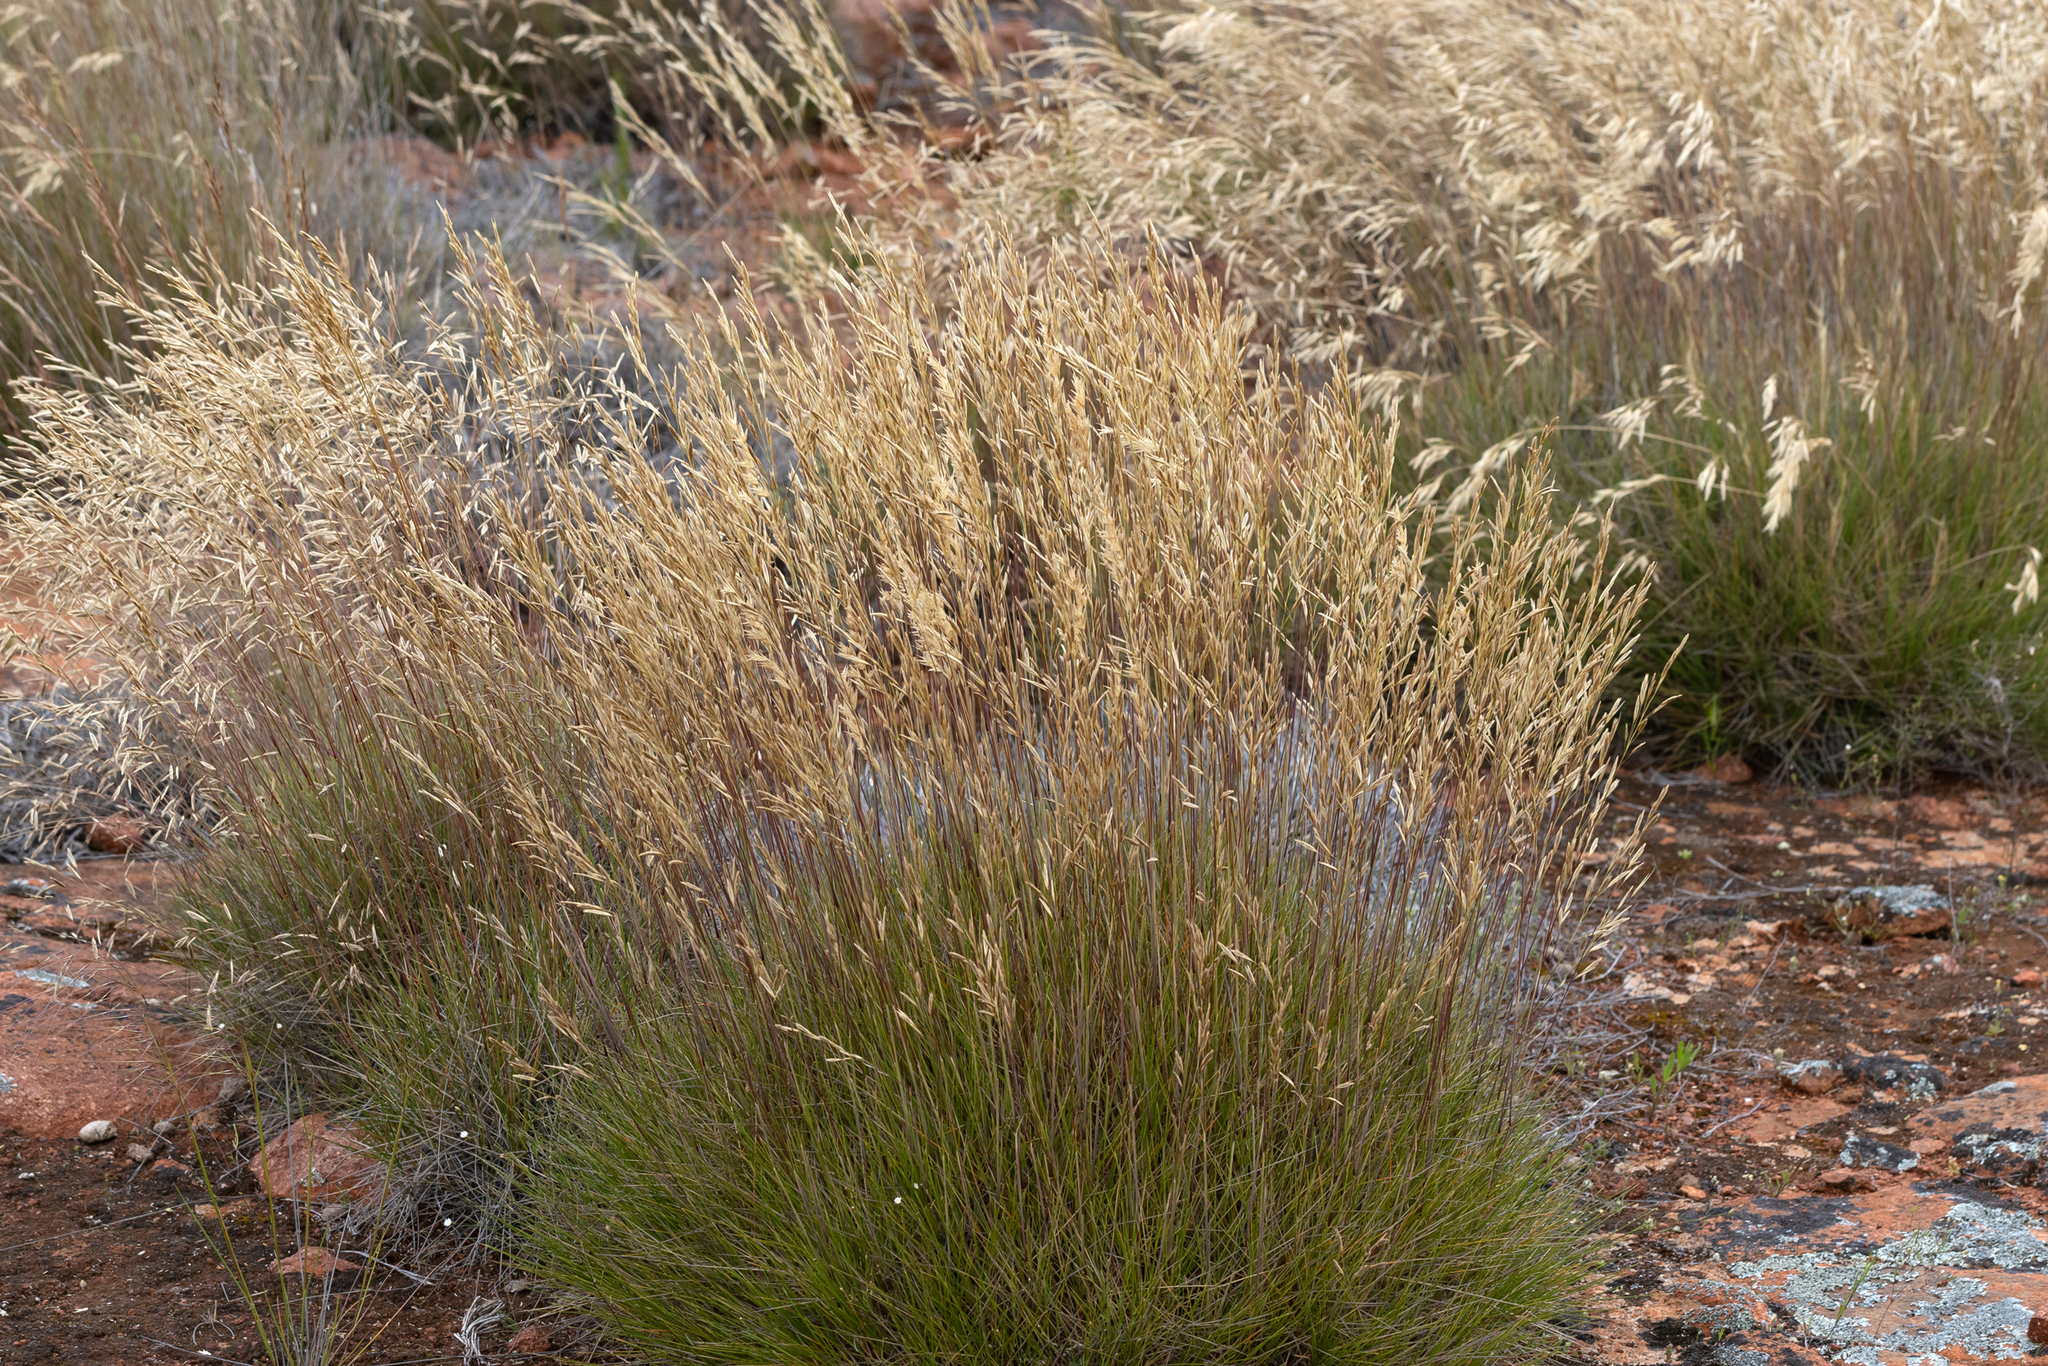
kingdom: Plantae
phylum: Tracheophyta
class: Liliopsida
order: Poales
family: Poaceae
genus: Triodia
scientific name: Triodia irritans
